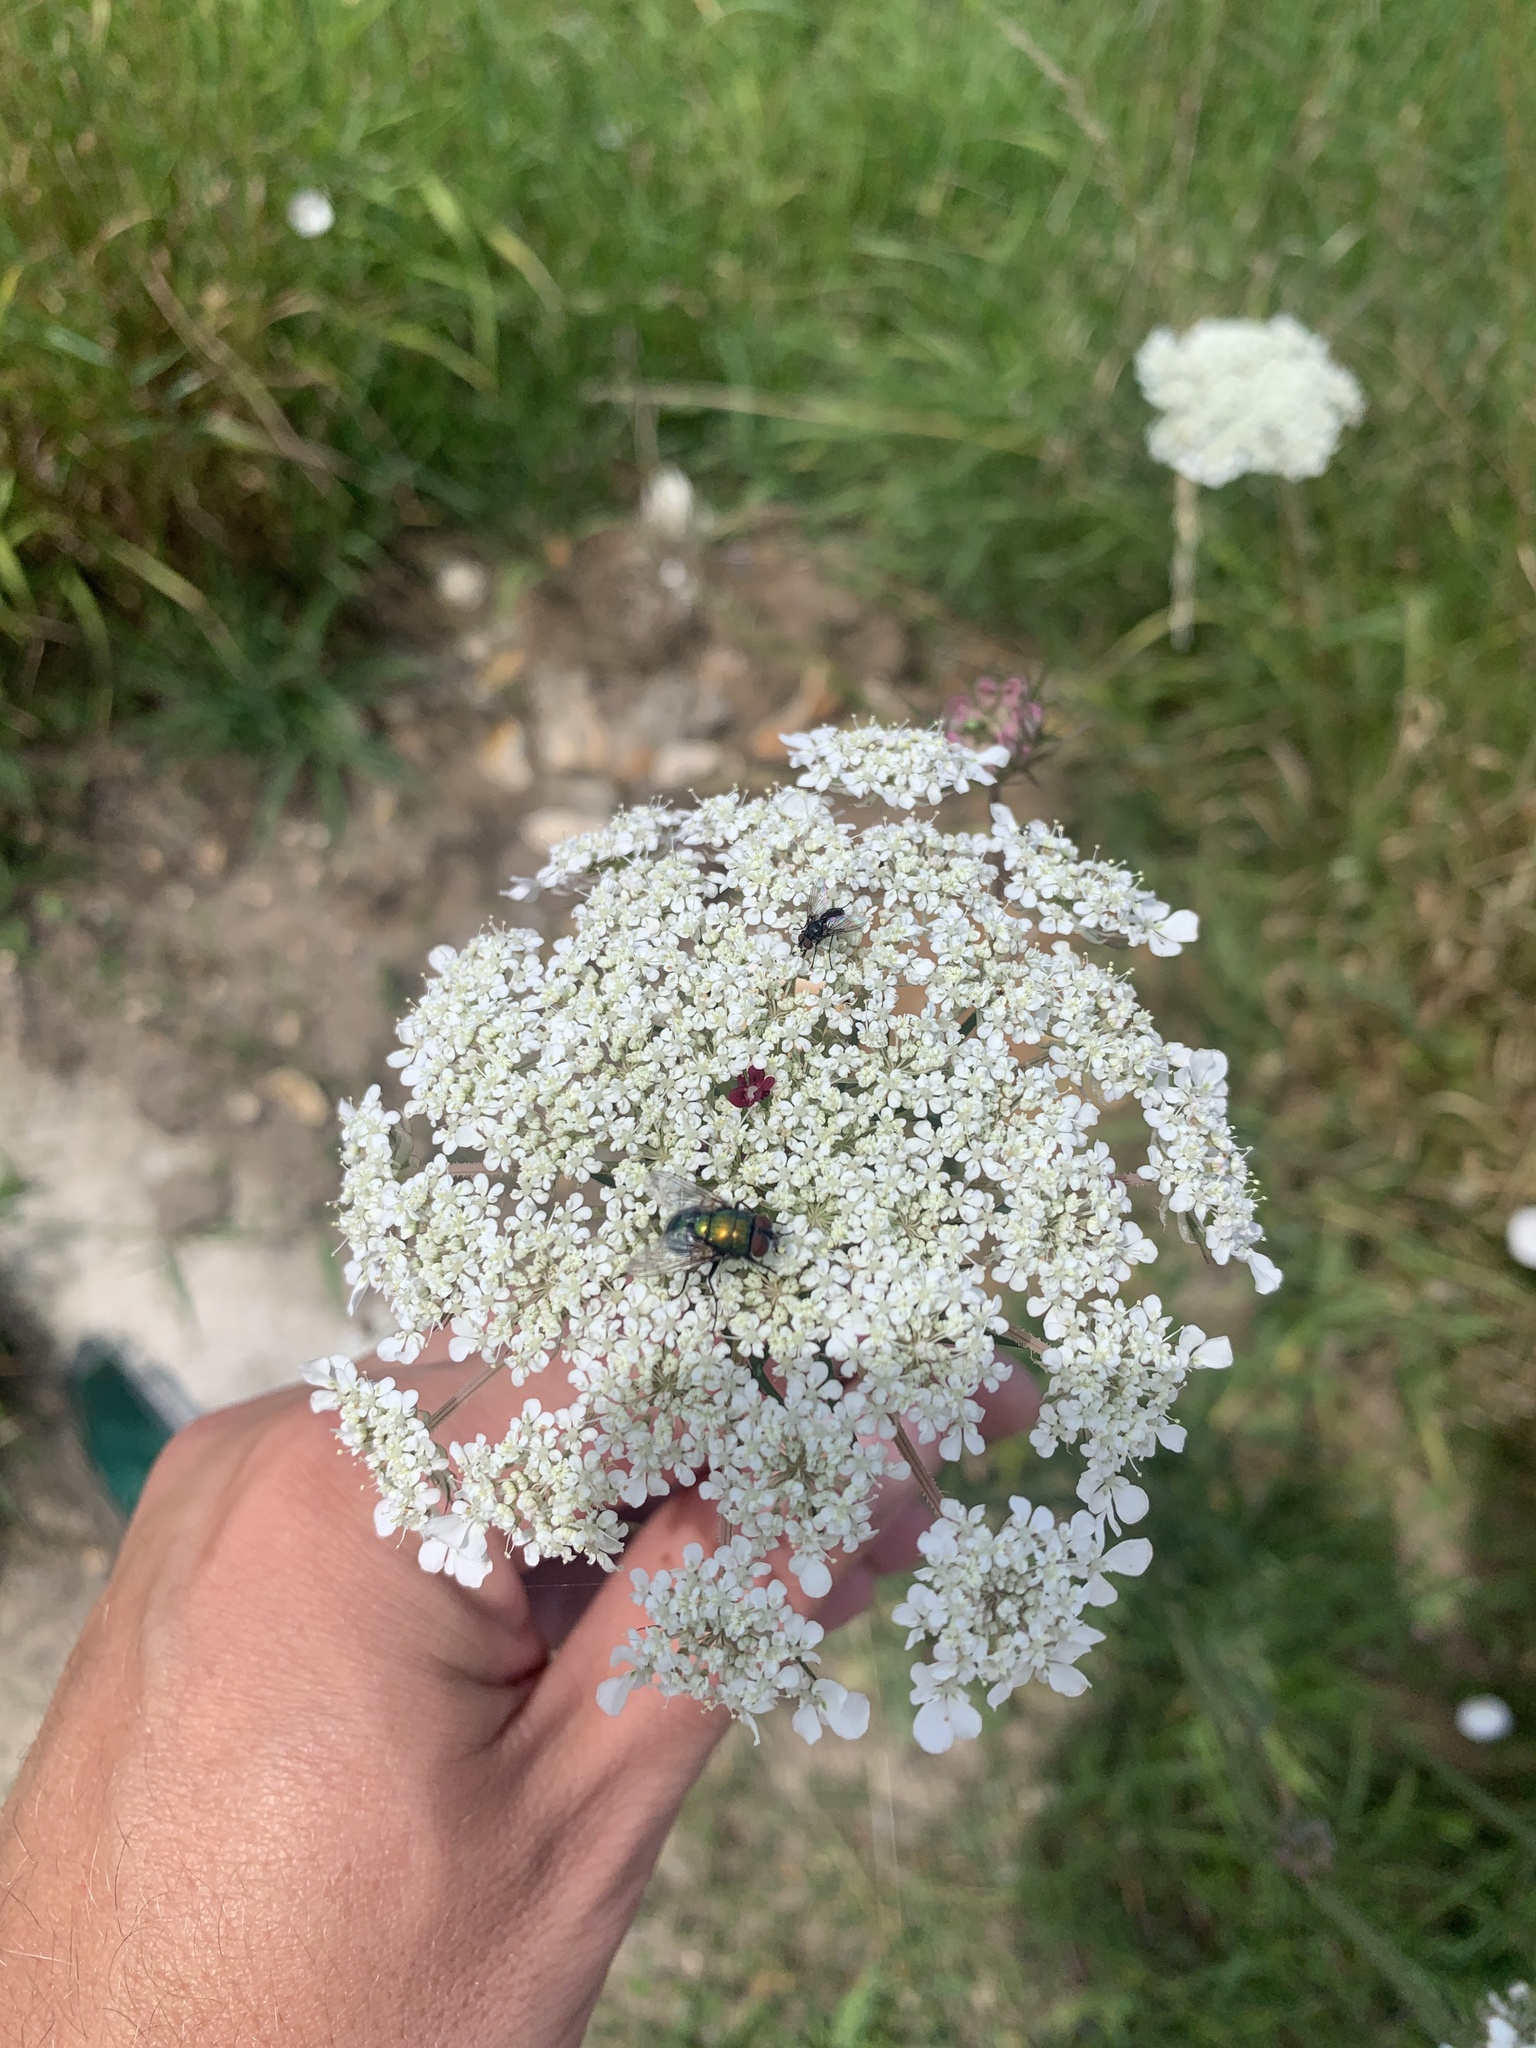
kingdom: Animalia
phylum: Arthropoda
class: Insecta
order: Diptera
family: Calliphoridae
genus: Lucilia
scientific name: Lucilia
